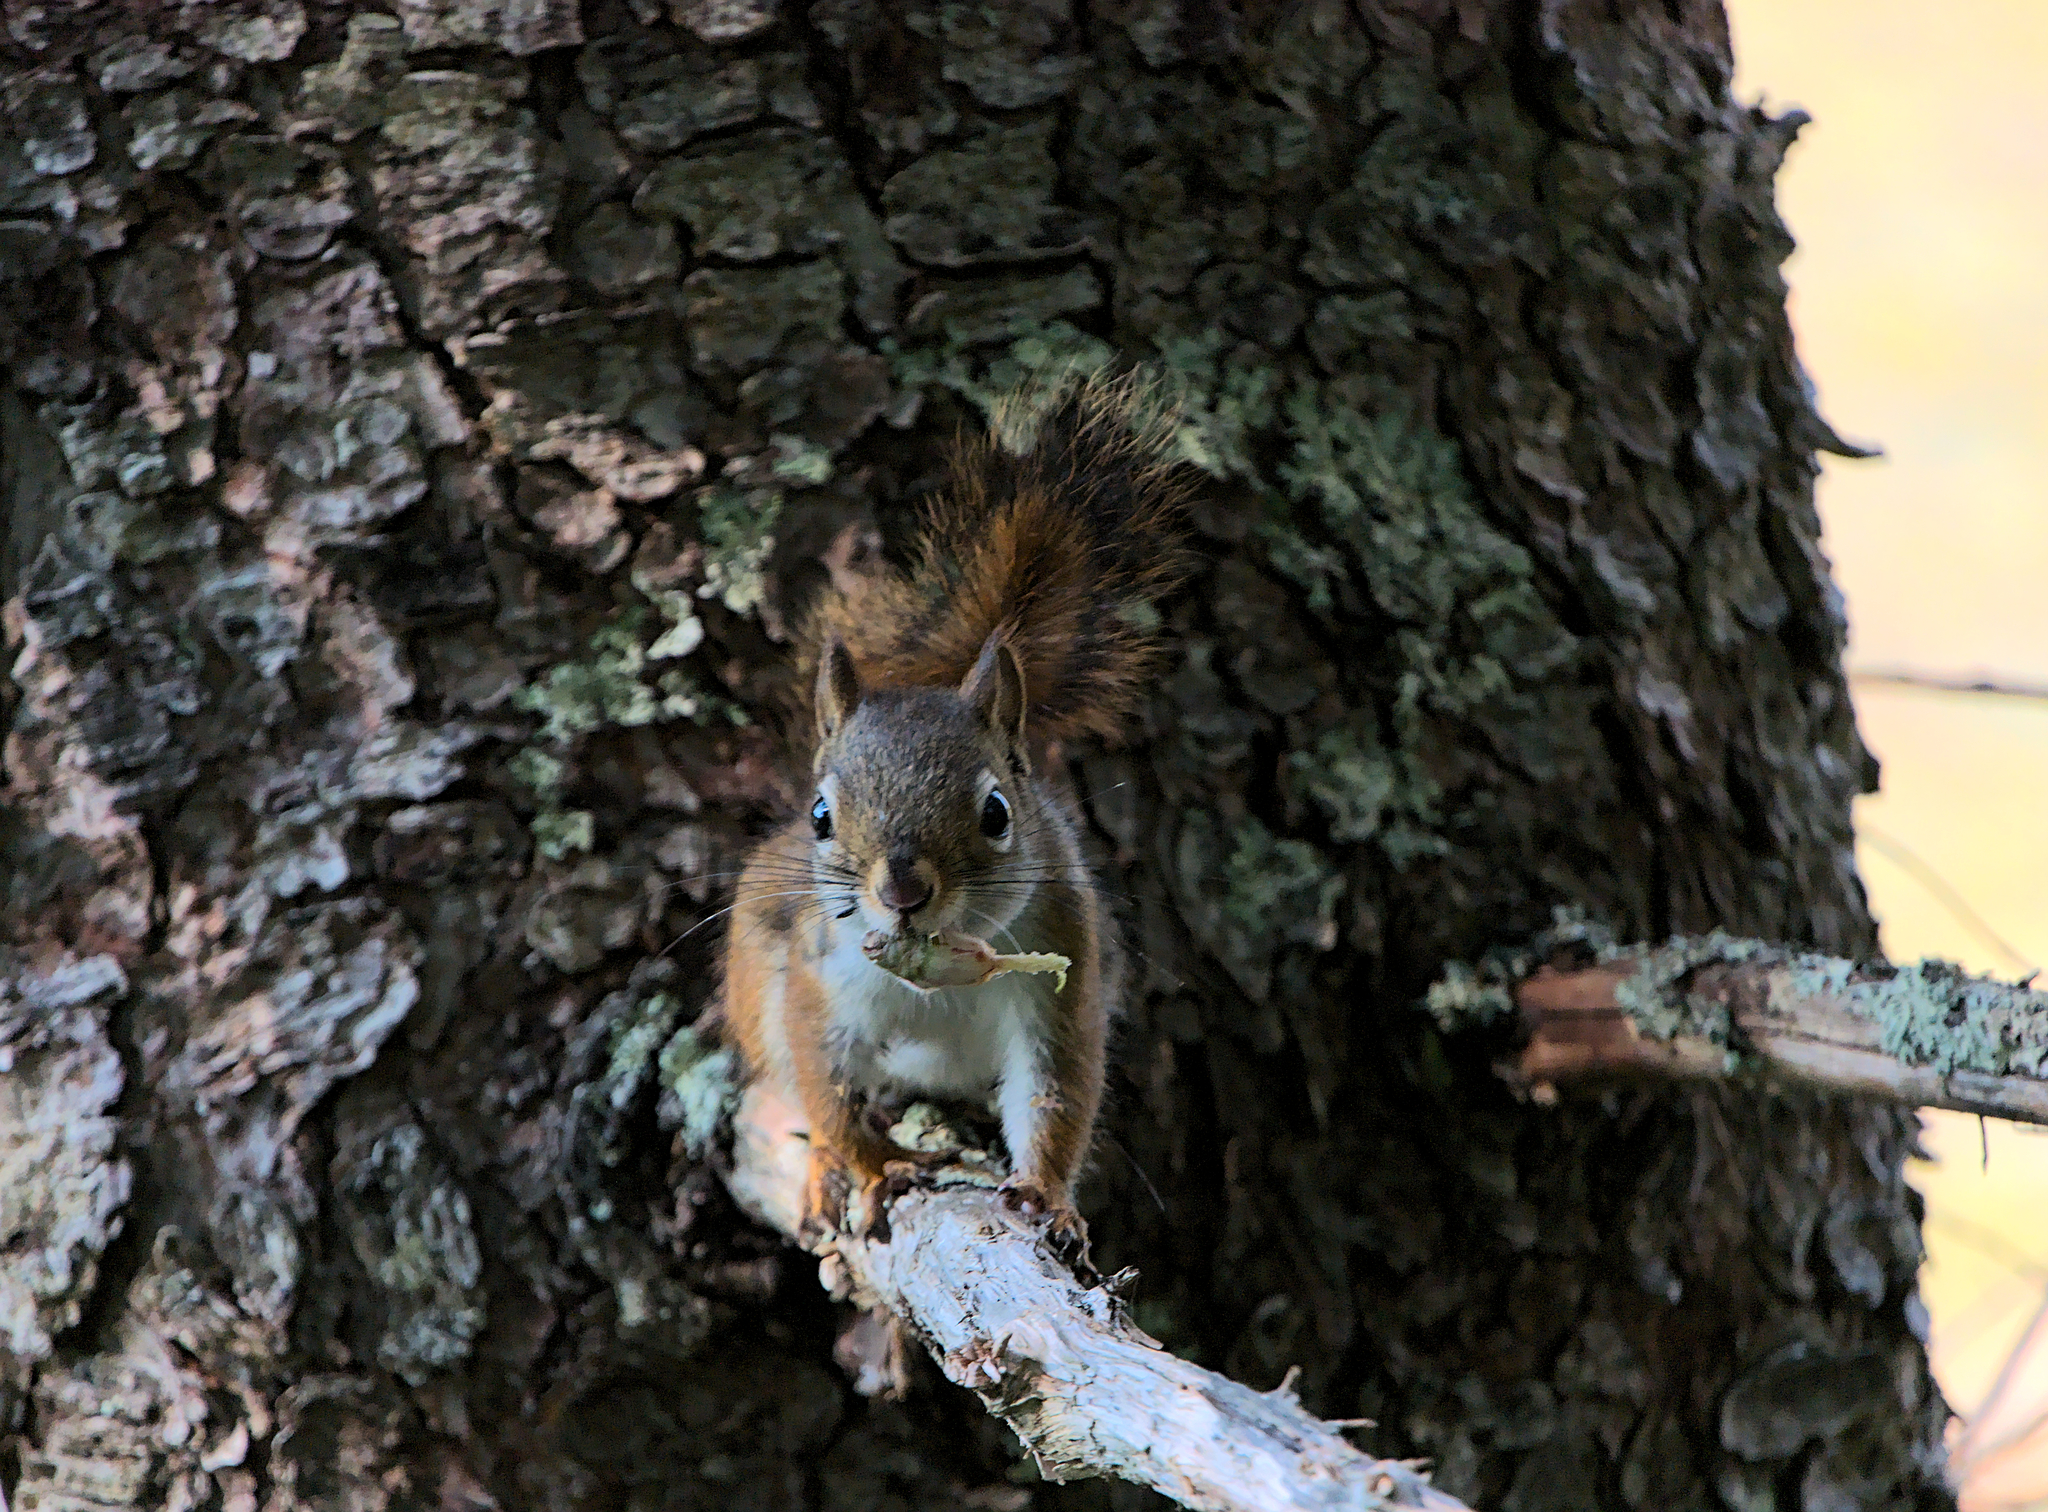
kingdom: Animalia
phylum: Chordata
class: Mammalia
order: Rodentia
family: Sciuridae
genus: Tamiasciurus
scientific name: Tamiasciurus hudsonicus
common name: Red squirrel
